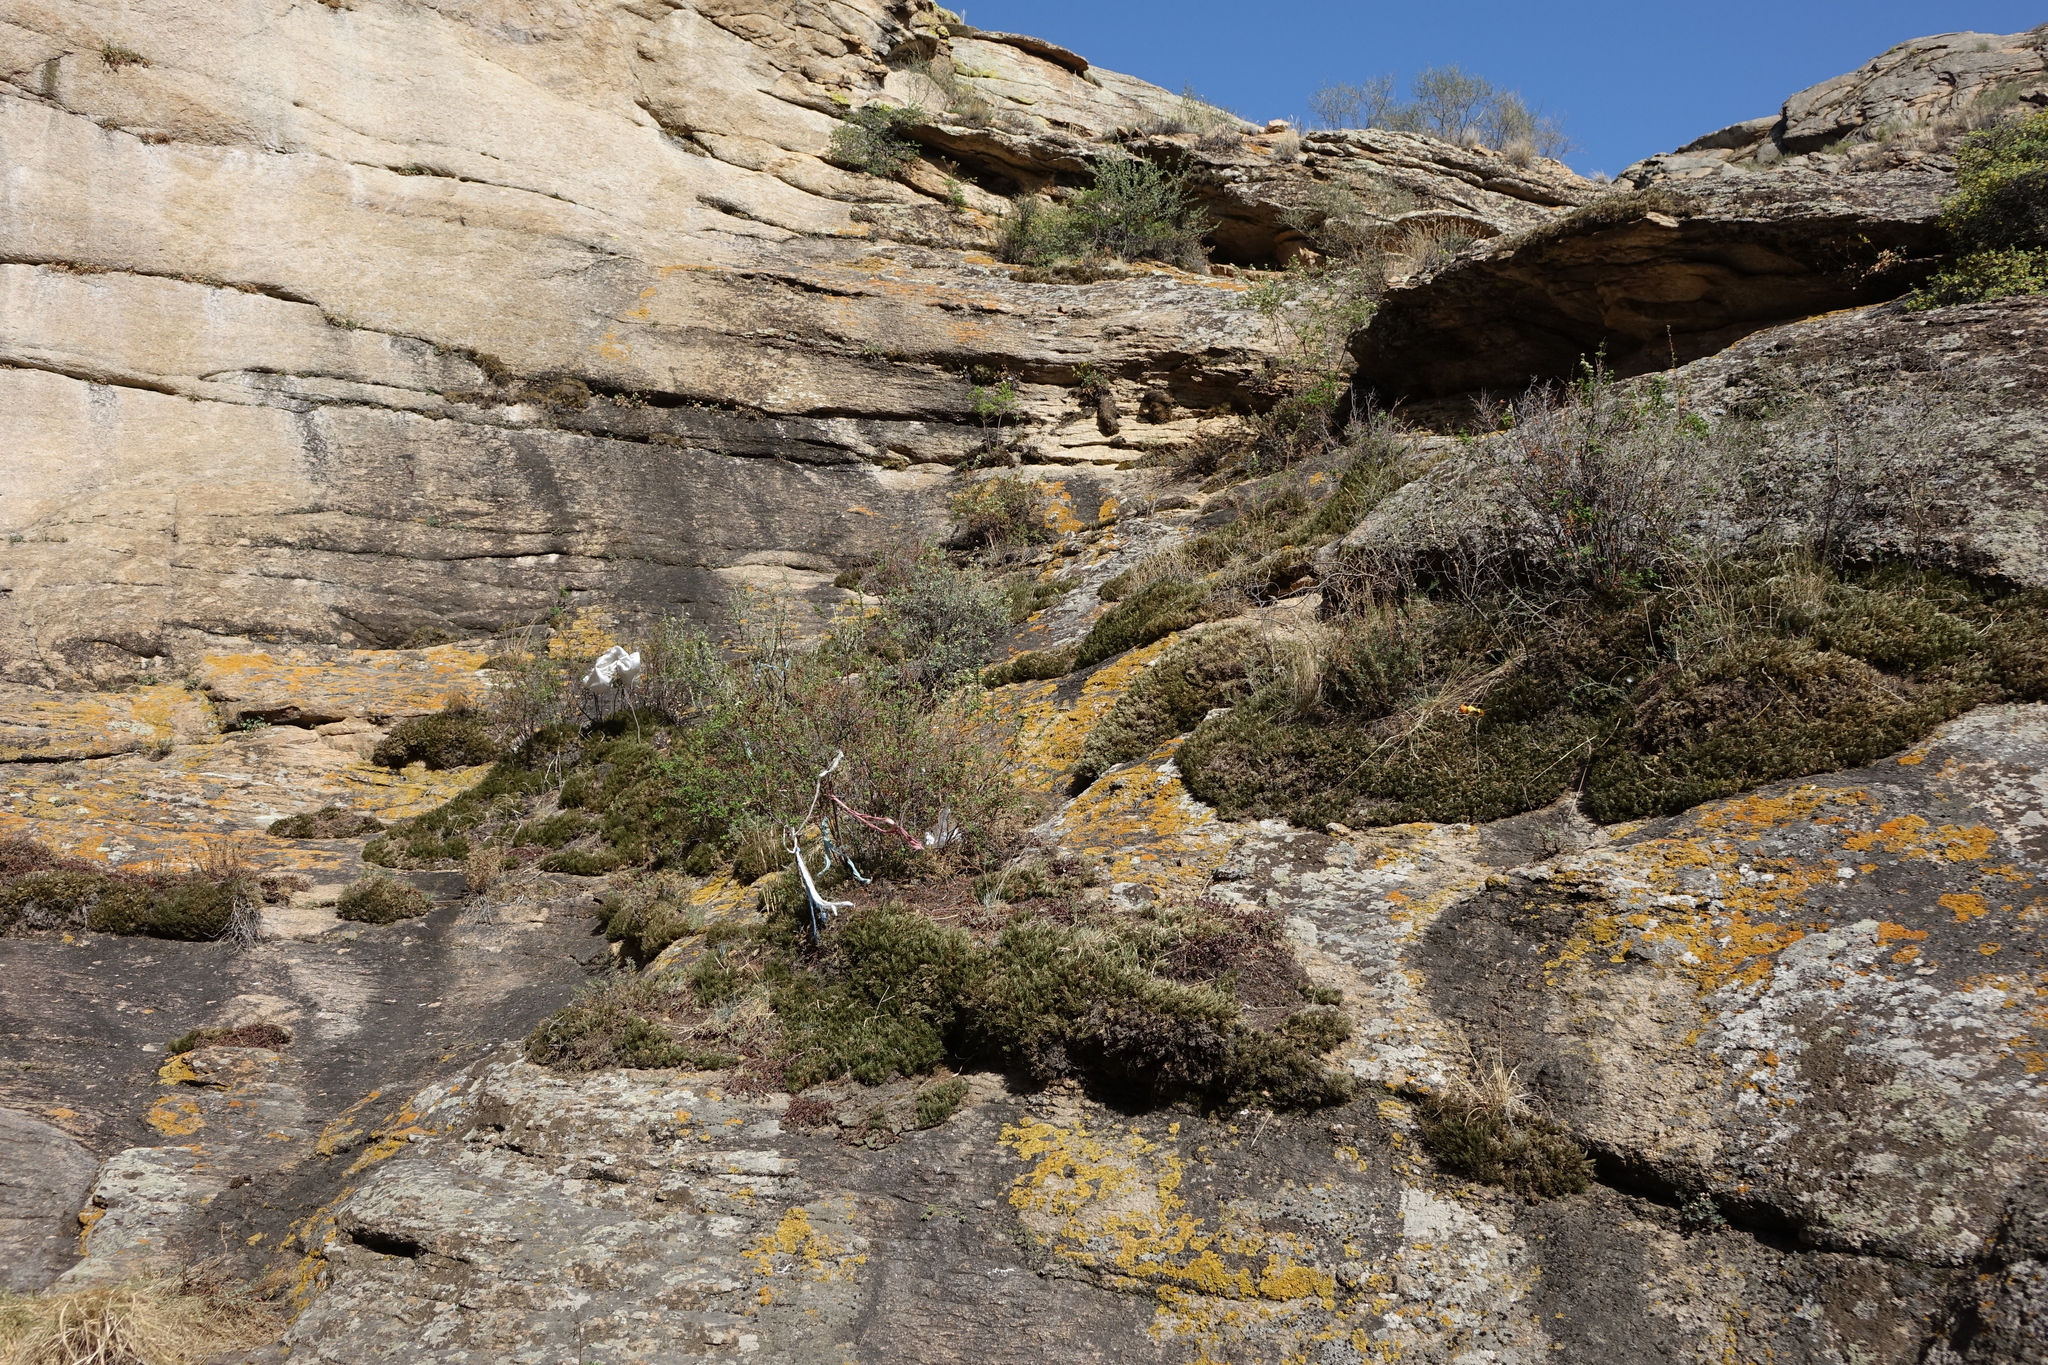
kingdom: Plantae
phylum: Tracheophyta
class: Lycopodiopsida
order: Selaginellales
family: Selaginellaceae
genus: Selaginella
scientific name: Selaginella sanguinolenta
